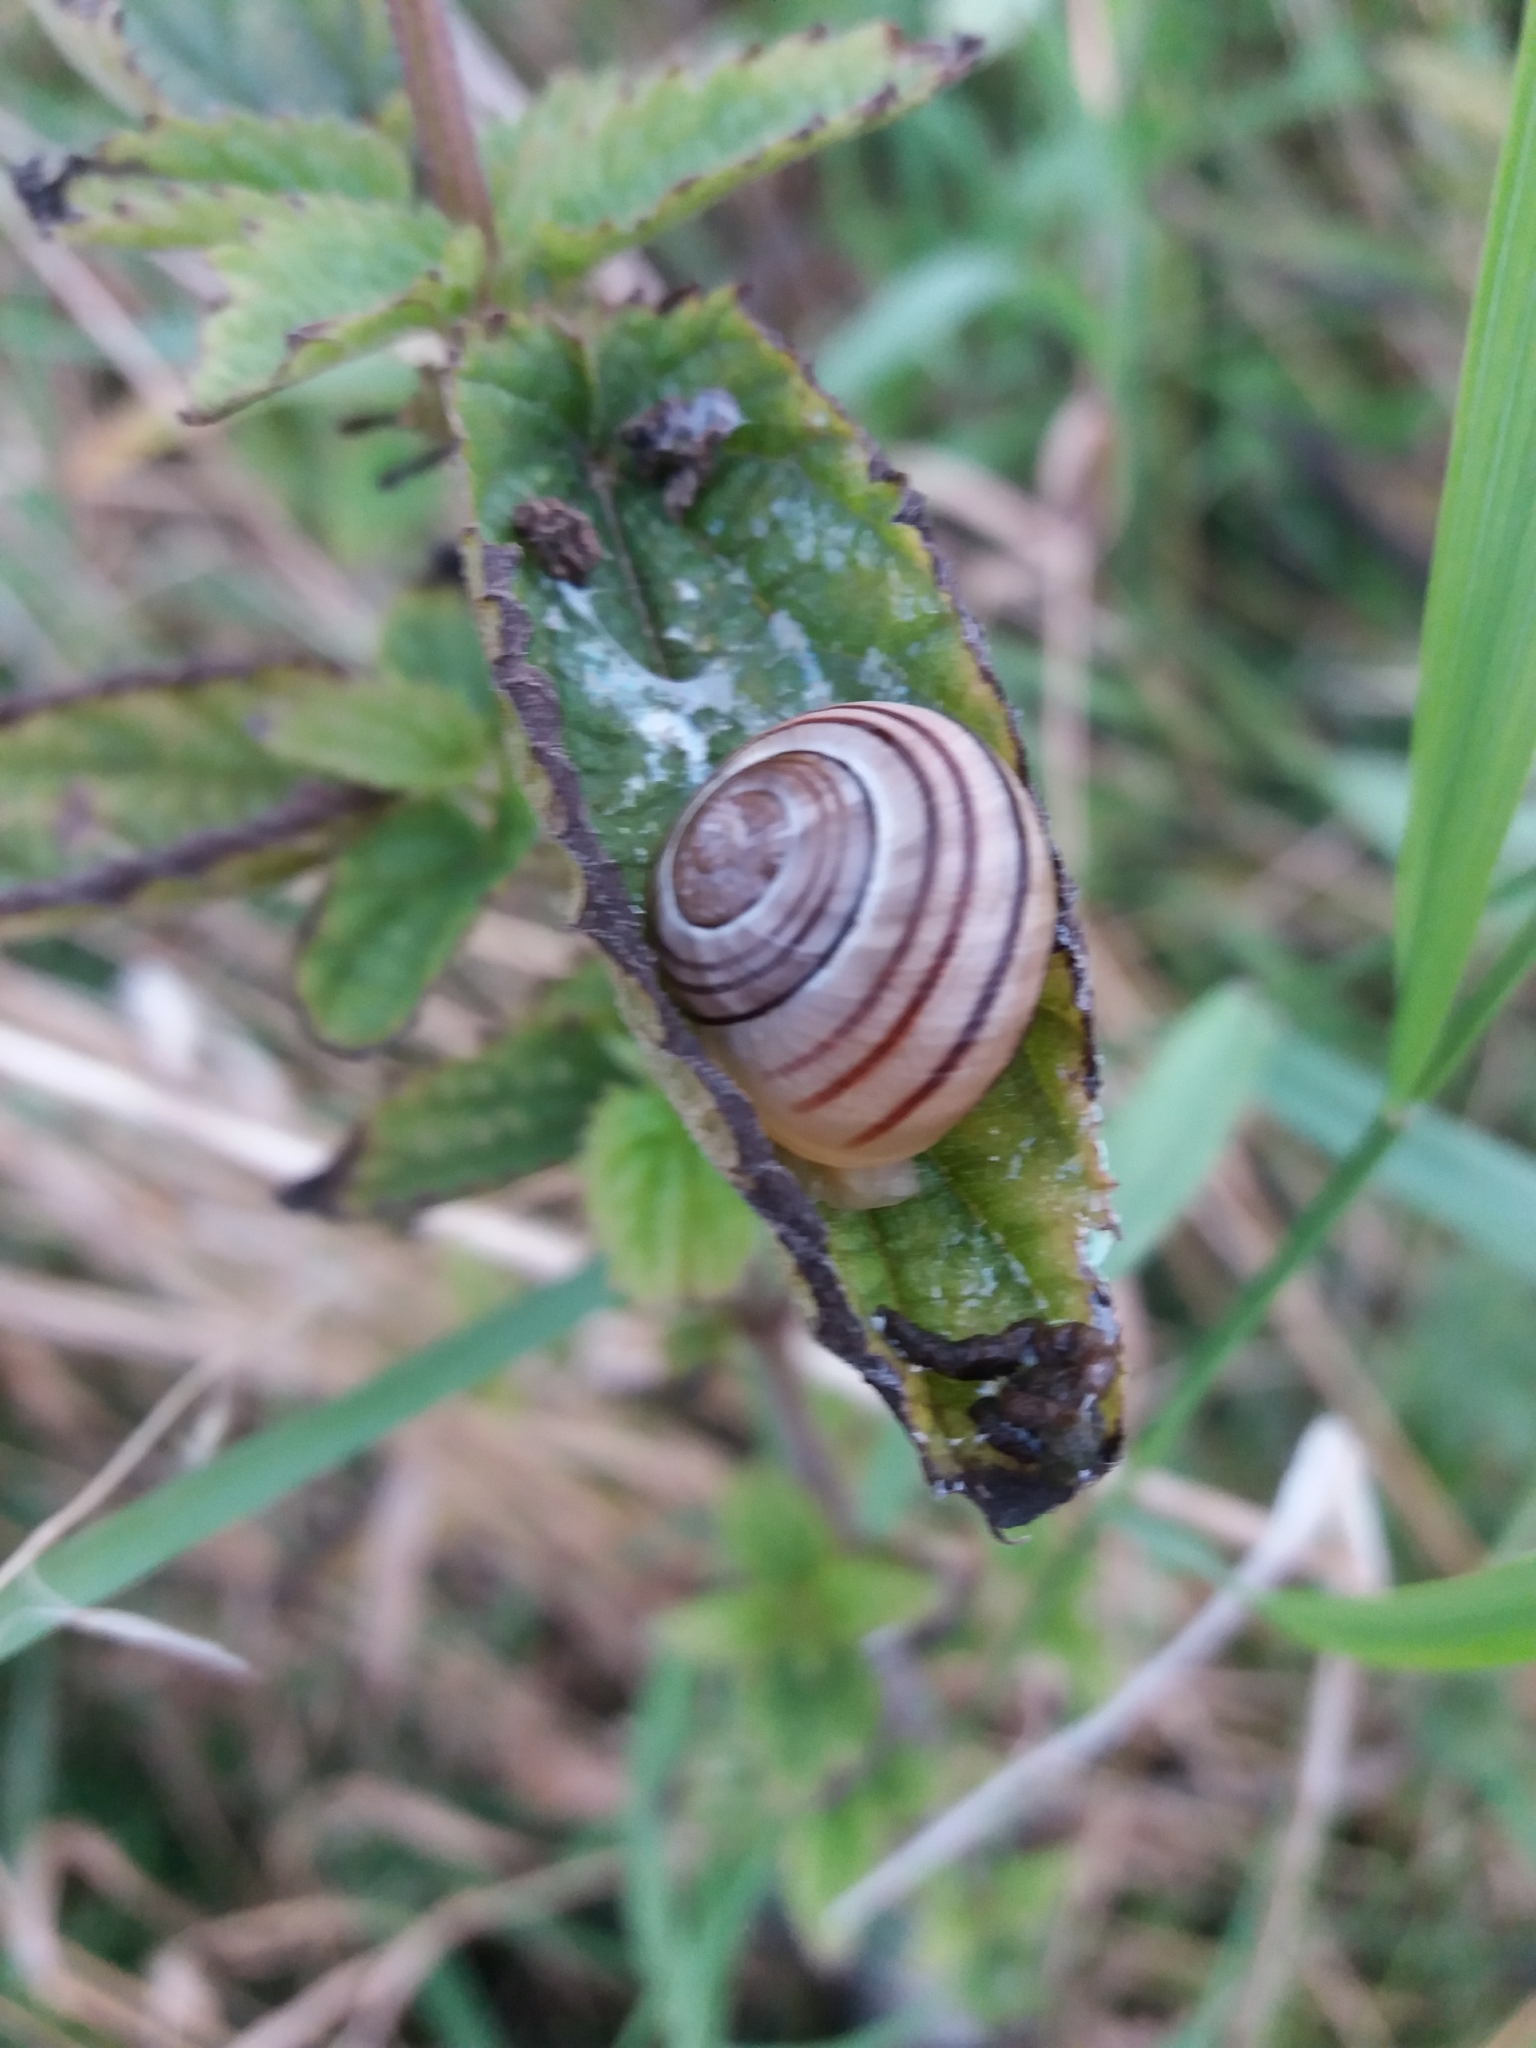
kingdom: Animalia
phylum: Mollusca
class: Gastropoda
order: Stylommatophora
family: Helicidae
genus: Cepaea
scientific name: Cepaea
